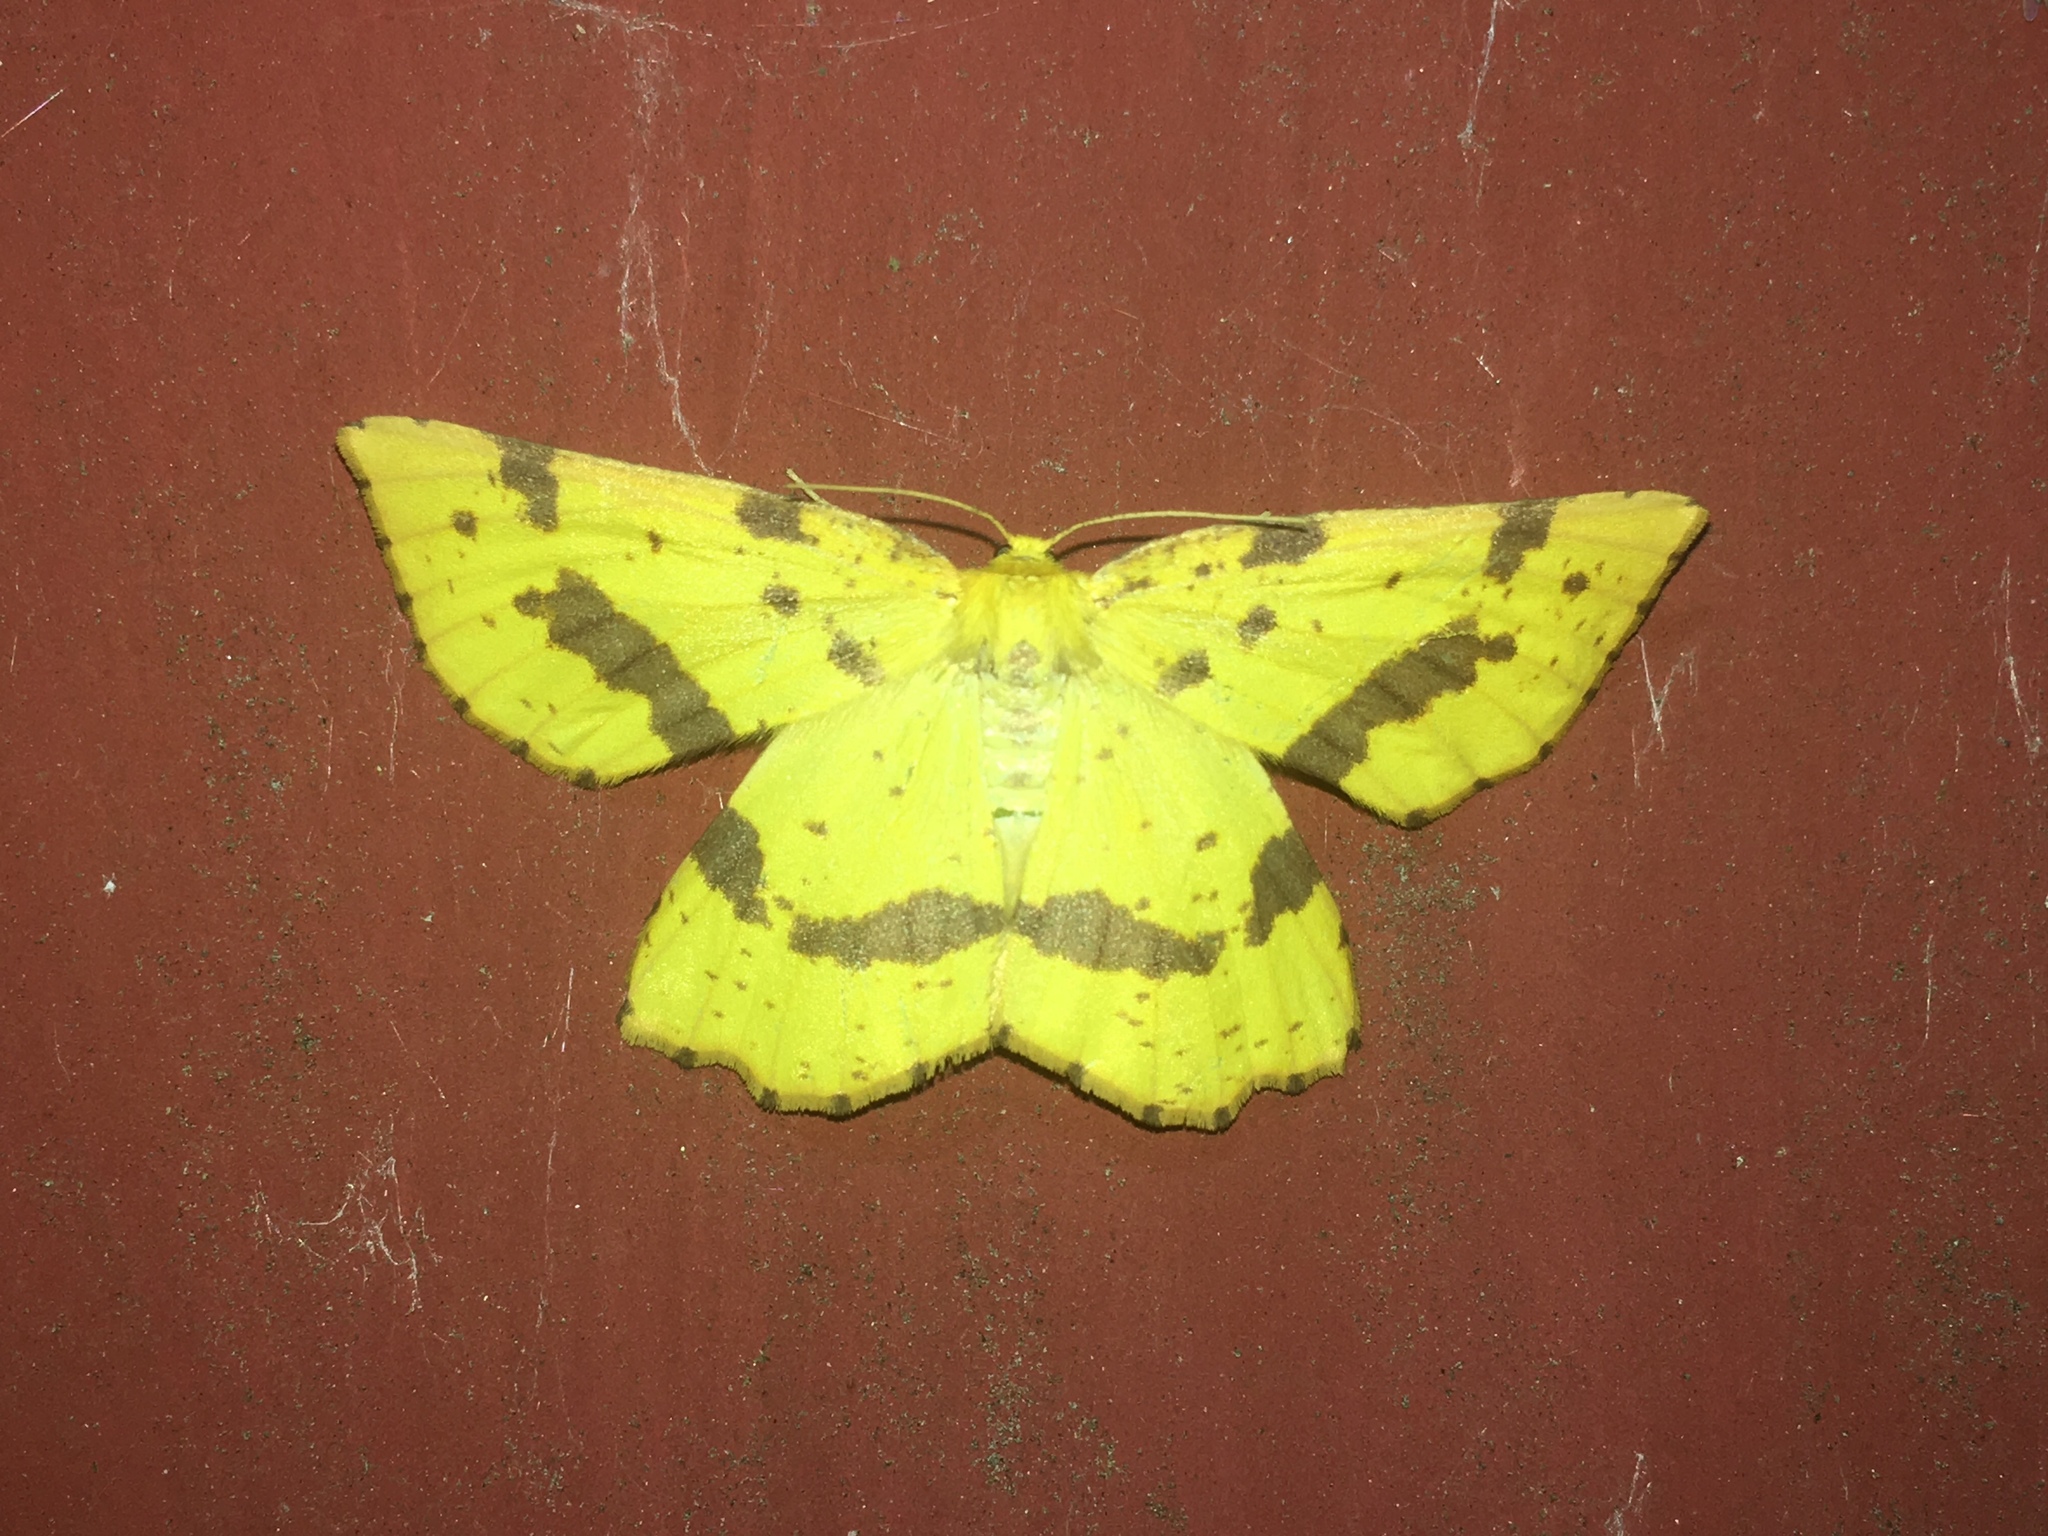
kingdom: Animalia
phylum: Arthropoda
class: Insecta
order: Lepidoptera
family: Geometridae
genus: Xanthotype
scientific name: Xanthotype
